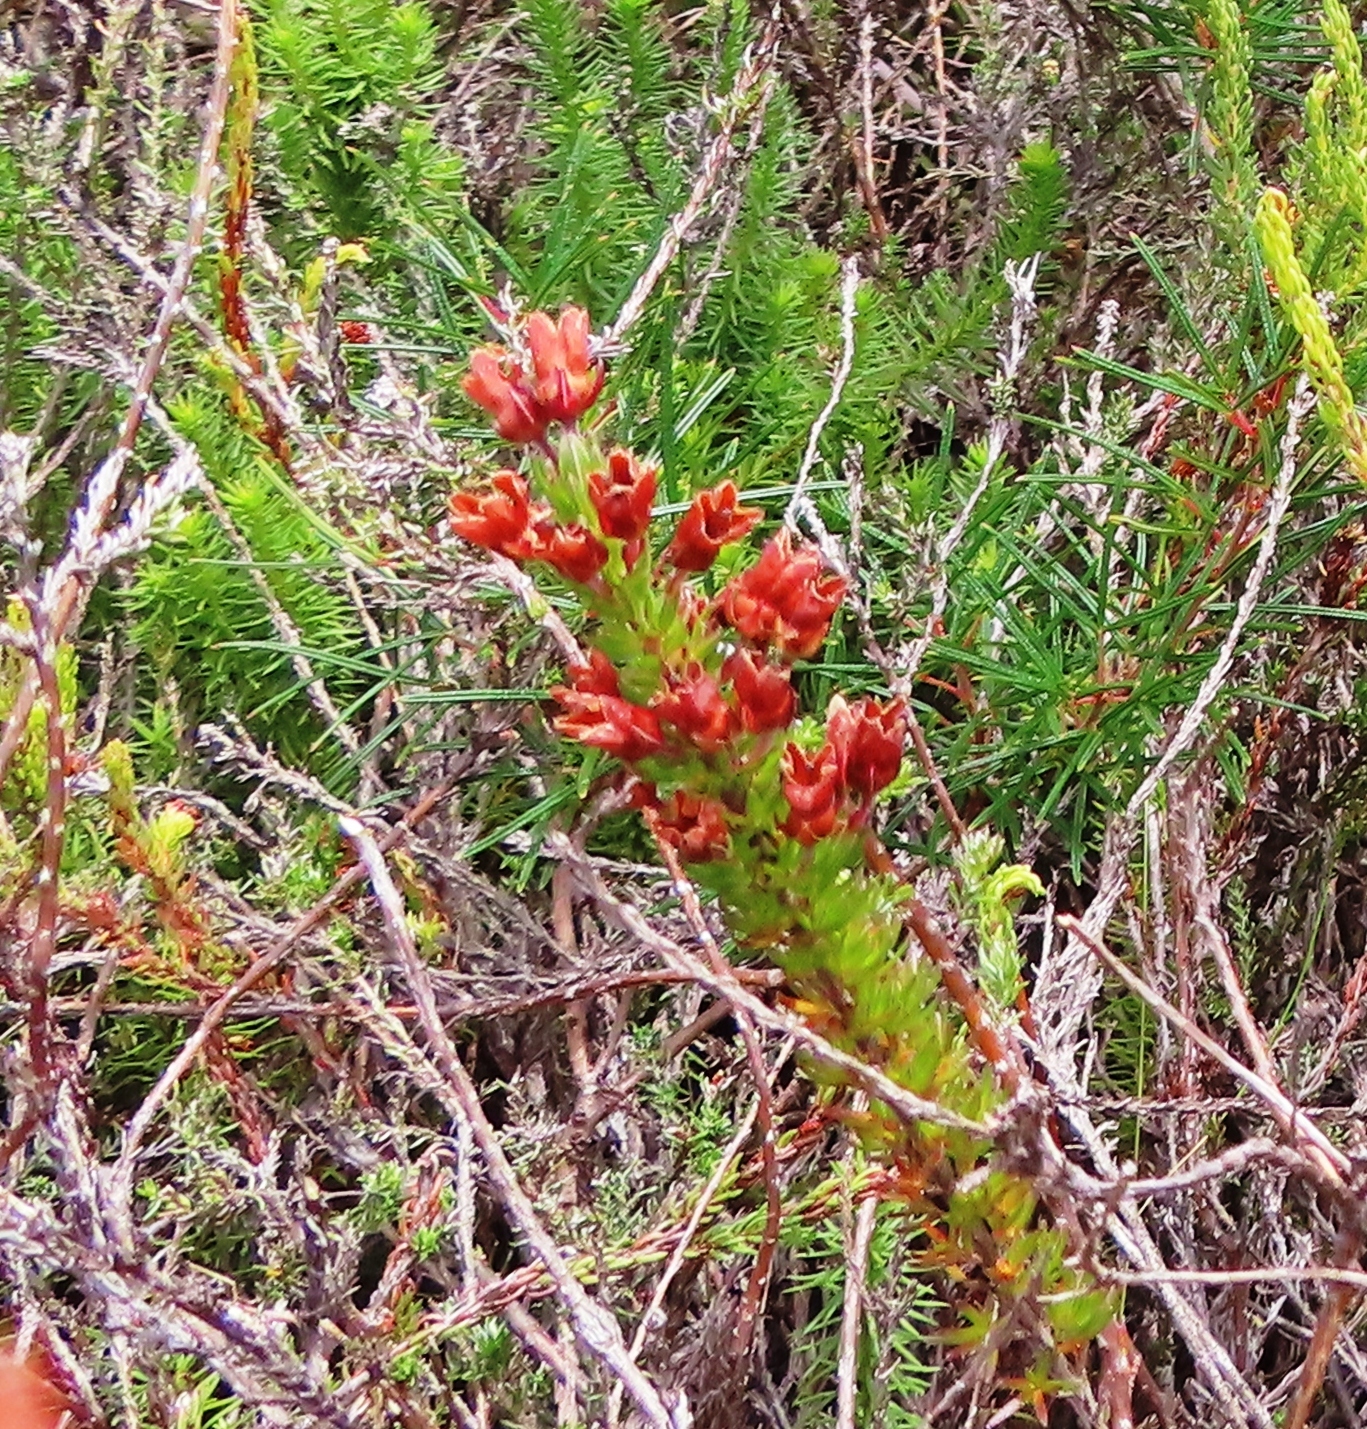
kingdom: Plantae
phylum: Tracheophyta
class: Magnoliopsida
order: Ericales
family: Ericaceae
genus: Erica
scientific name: Erica elimensis
